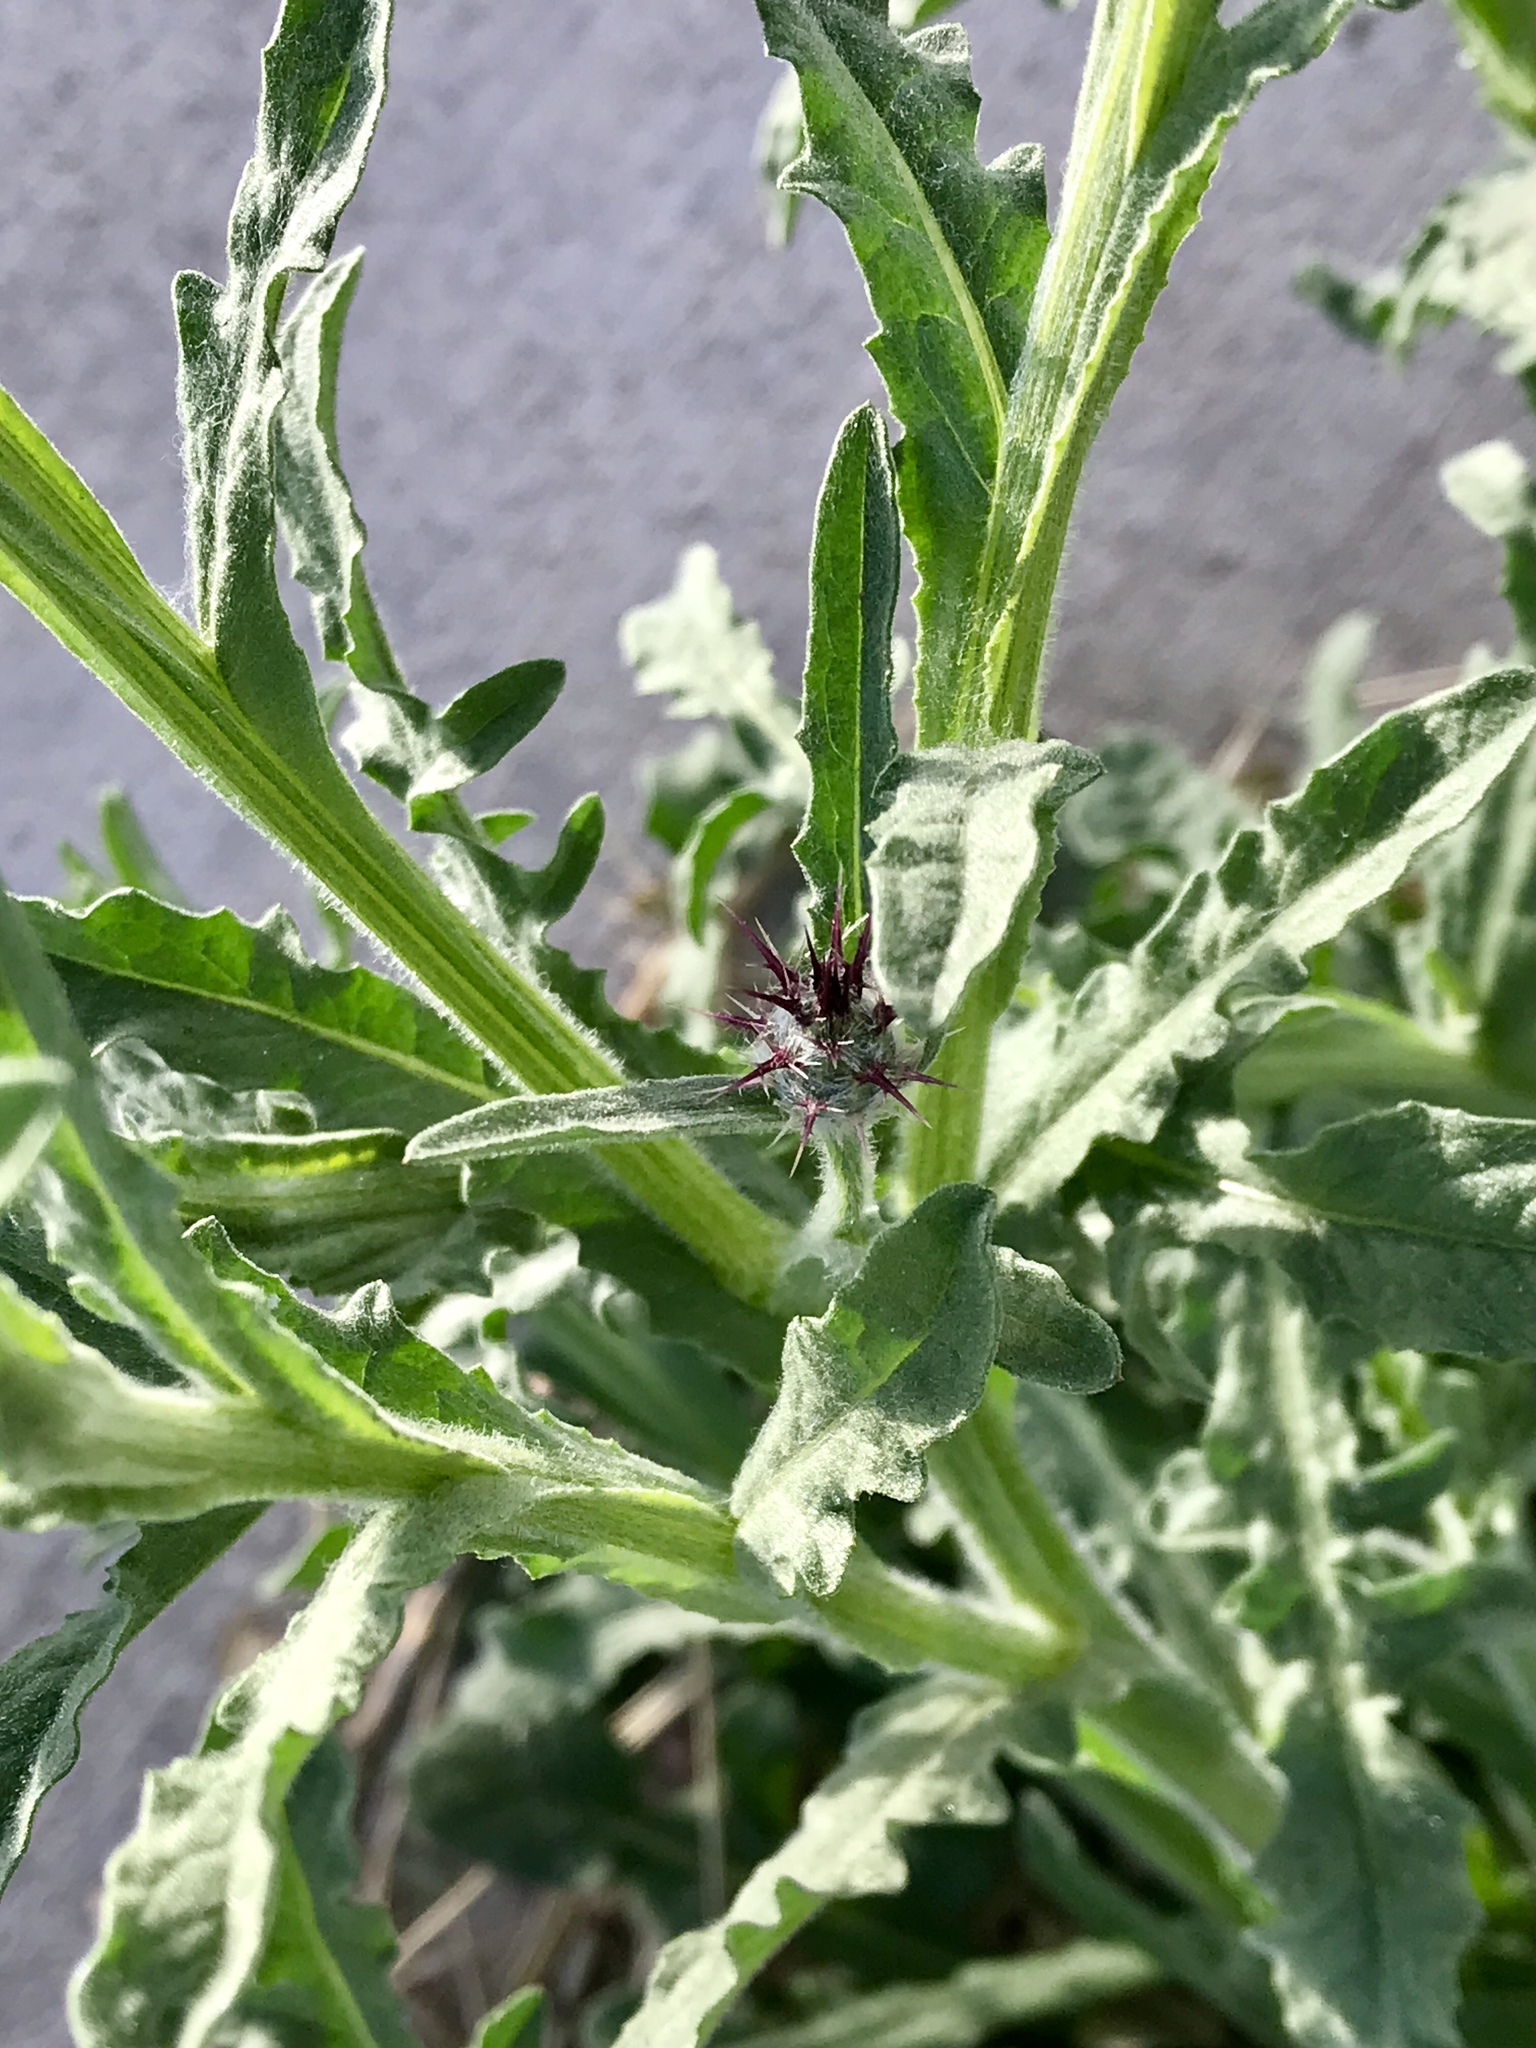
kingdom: Plantae
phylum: Tracheophyta
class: Magnoliopsida
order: Asterales
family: Asteraceae
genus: Centaurea
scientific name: Centaurea melitensis
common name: Maltese star-thistle
